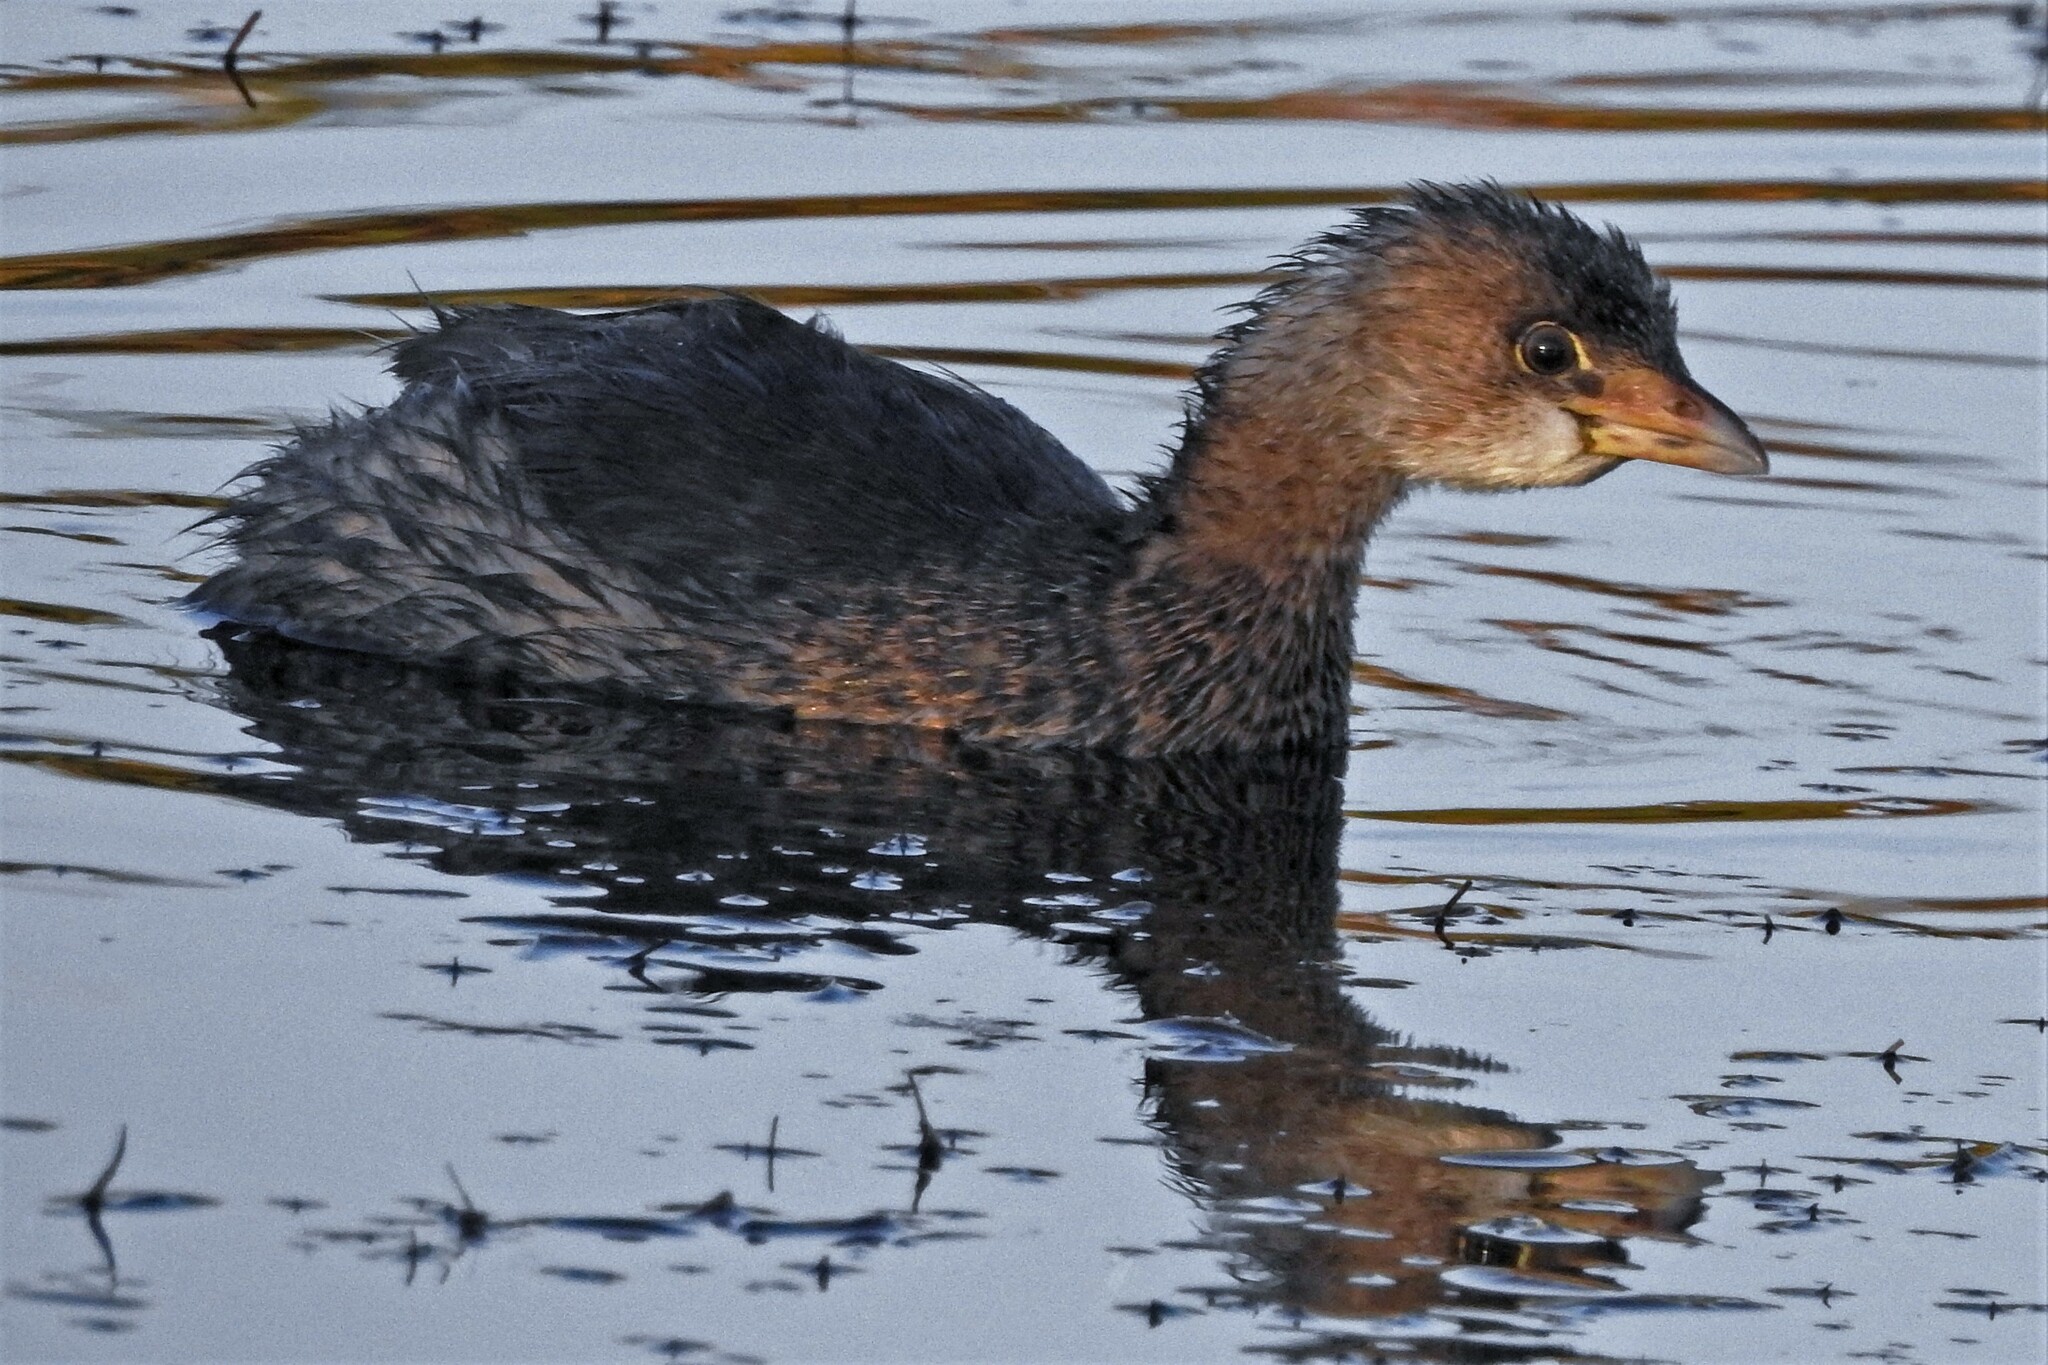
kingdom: Animalia
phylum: Chordata
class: Aves
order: Podicipediformes
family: Podicipedidae
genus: Podilymbus
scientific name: Podilymbus podiceps
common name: Pied-billed grebe
